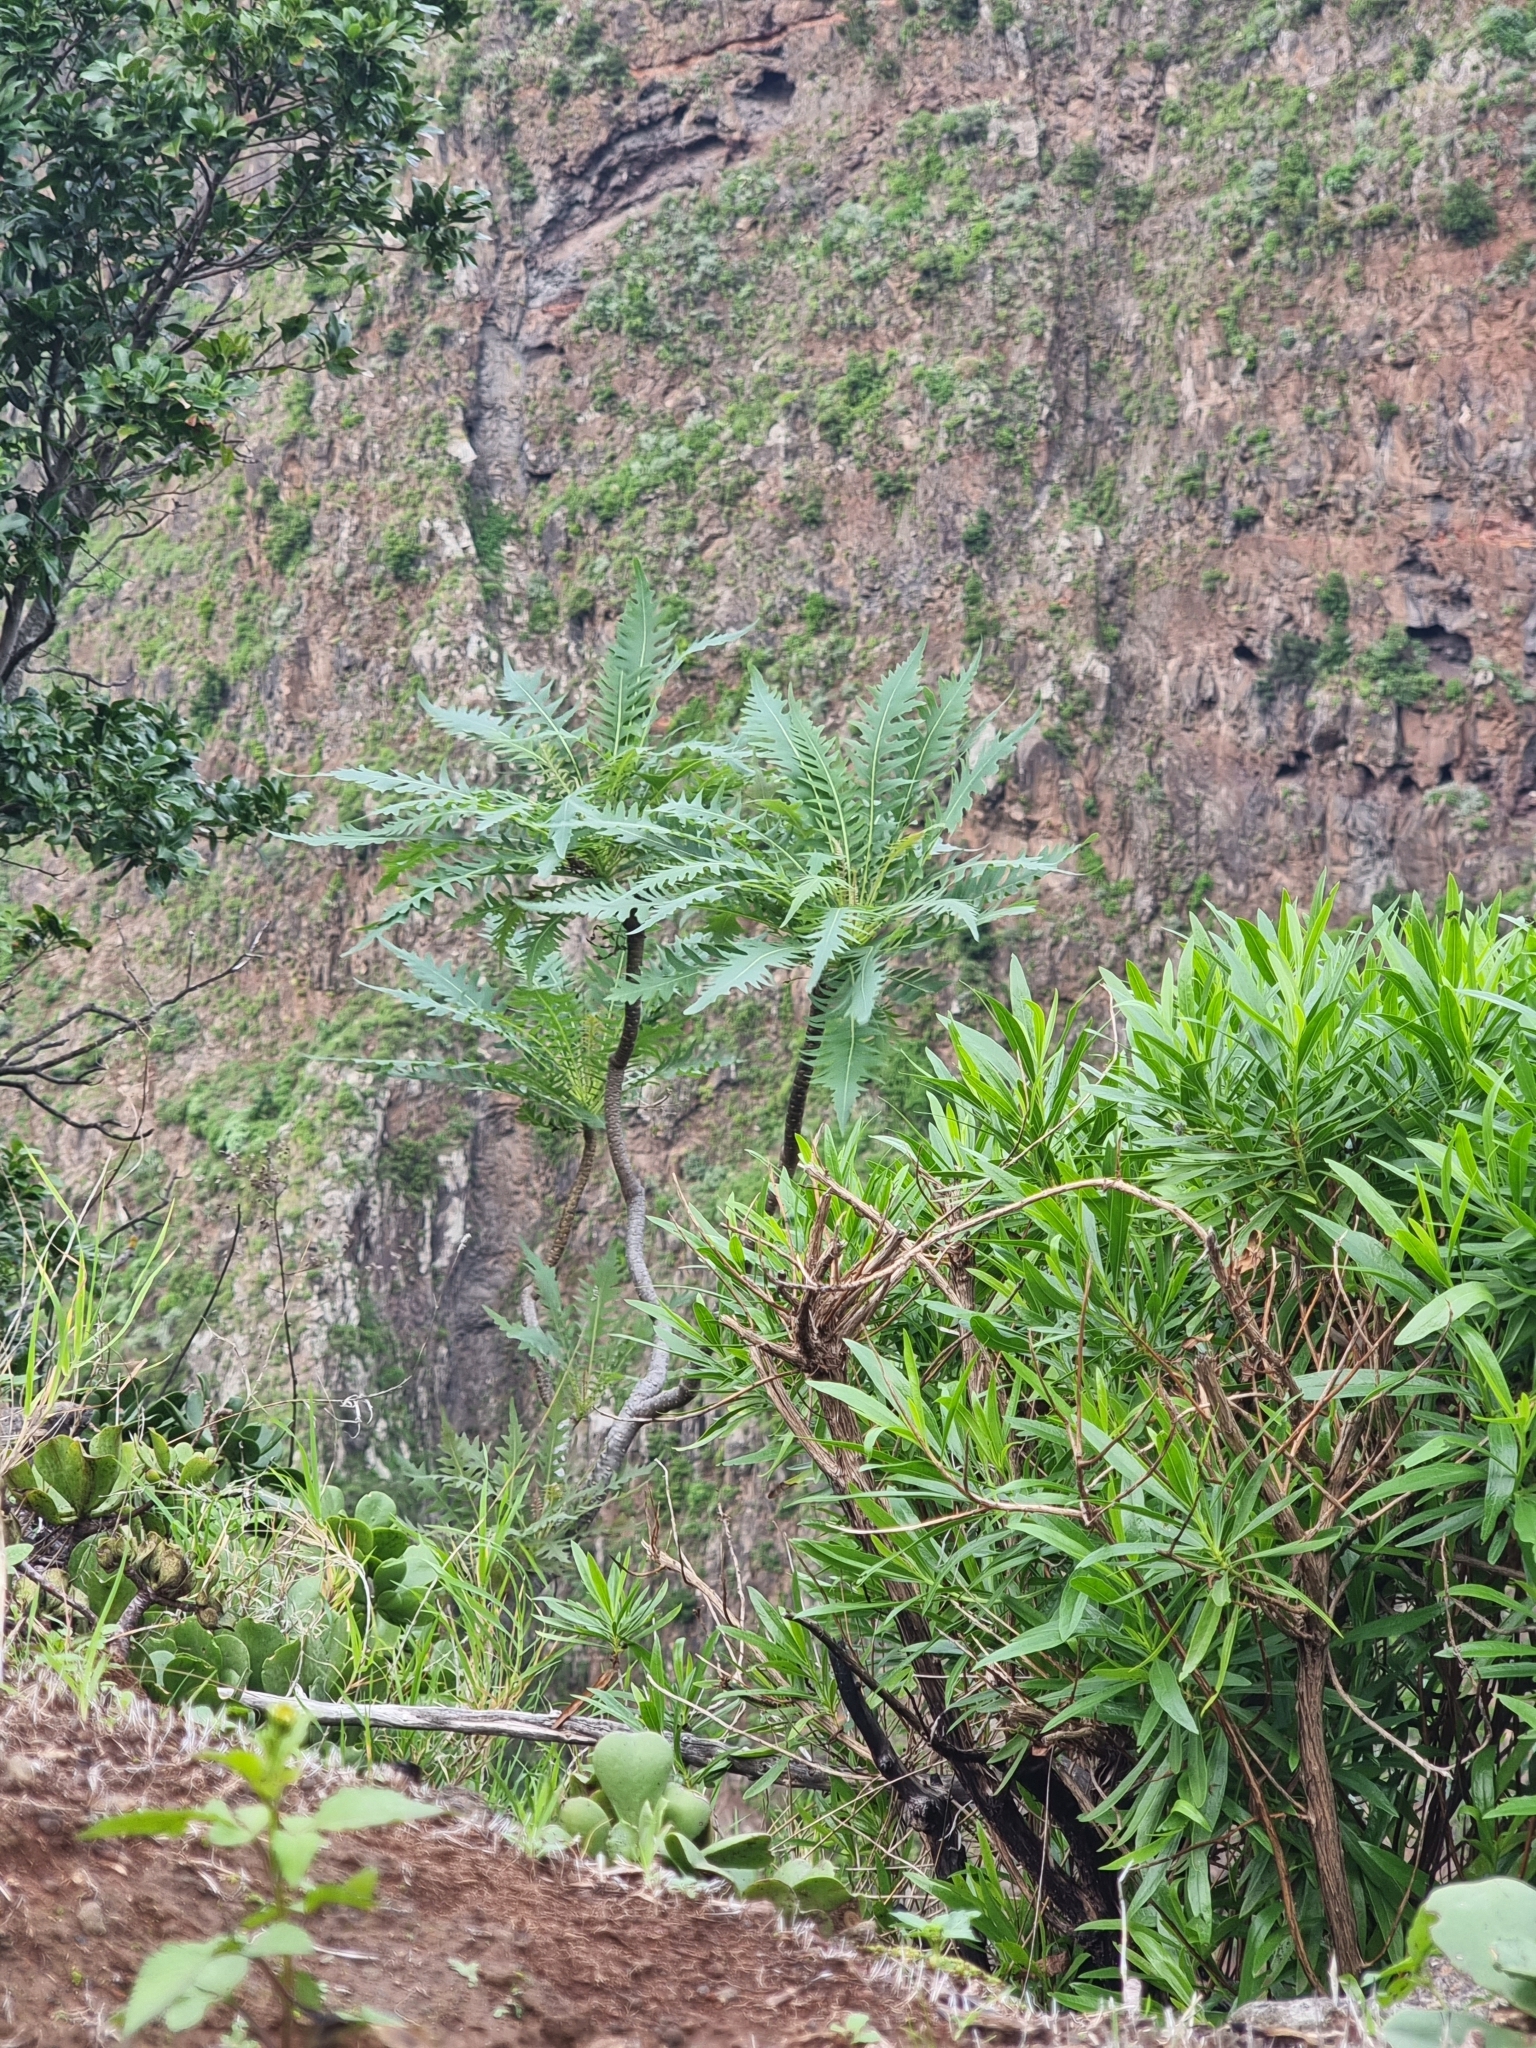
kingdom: Plantae
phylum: Tracheophyta
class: Magnoliopsida
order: Asterales
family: Asteraceae
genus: Sonchus
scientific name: Sonchus pinnatus
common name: Wing-leaved sow-thistle
